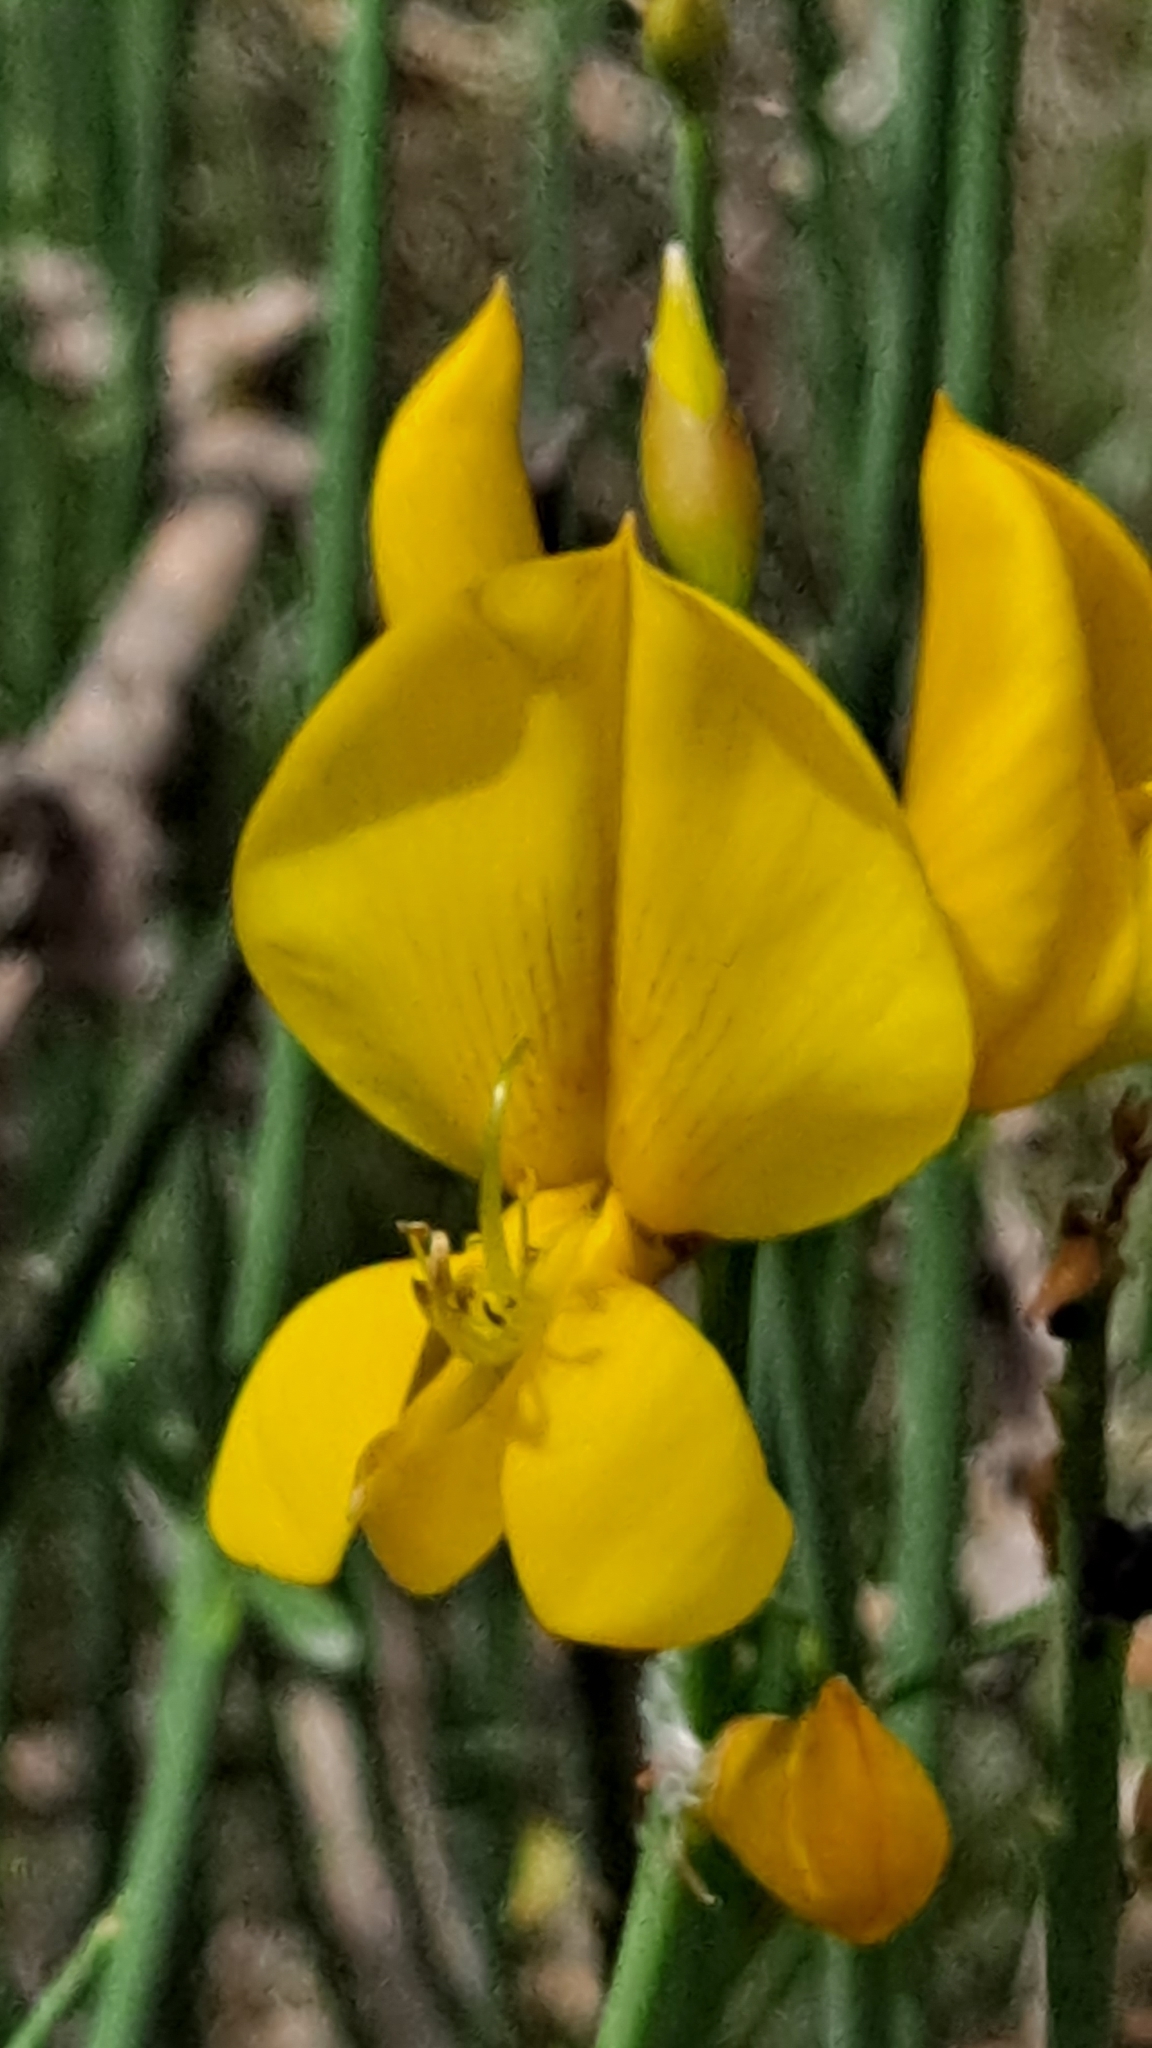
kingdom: Plantae
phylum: Tracheophyta
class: Magnoliopsida
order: Fabales
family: Fabaceae
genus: Spartium
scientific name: Spartium junceum
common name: Spanish broom
